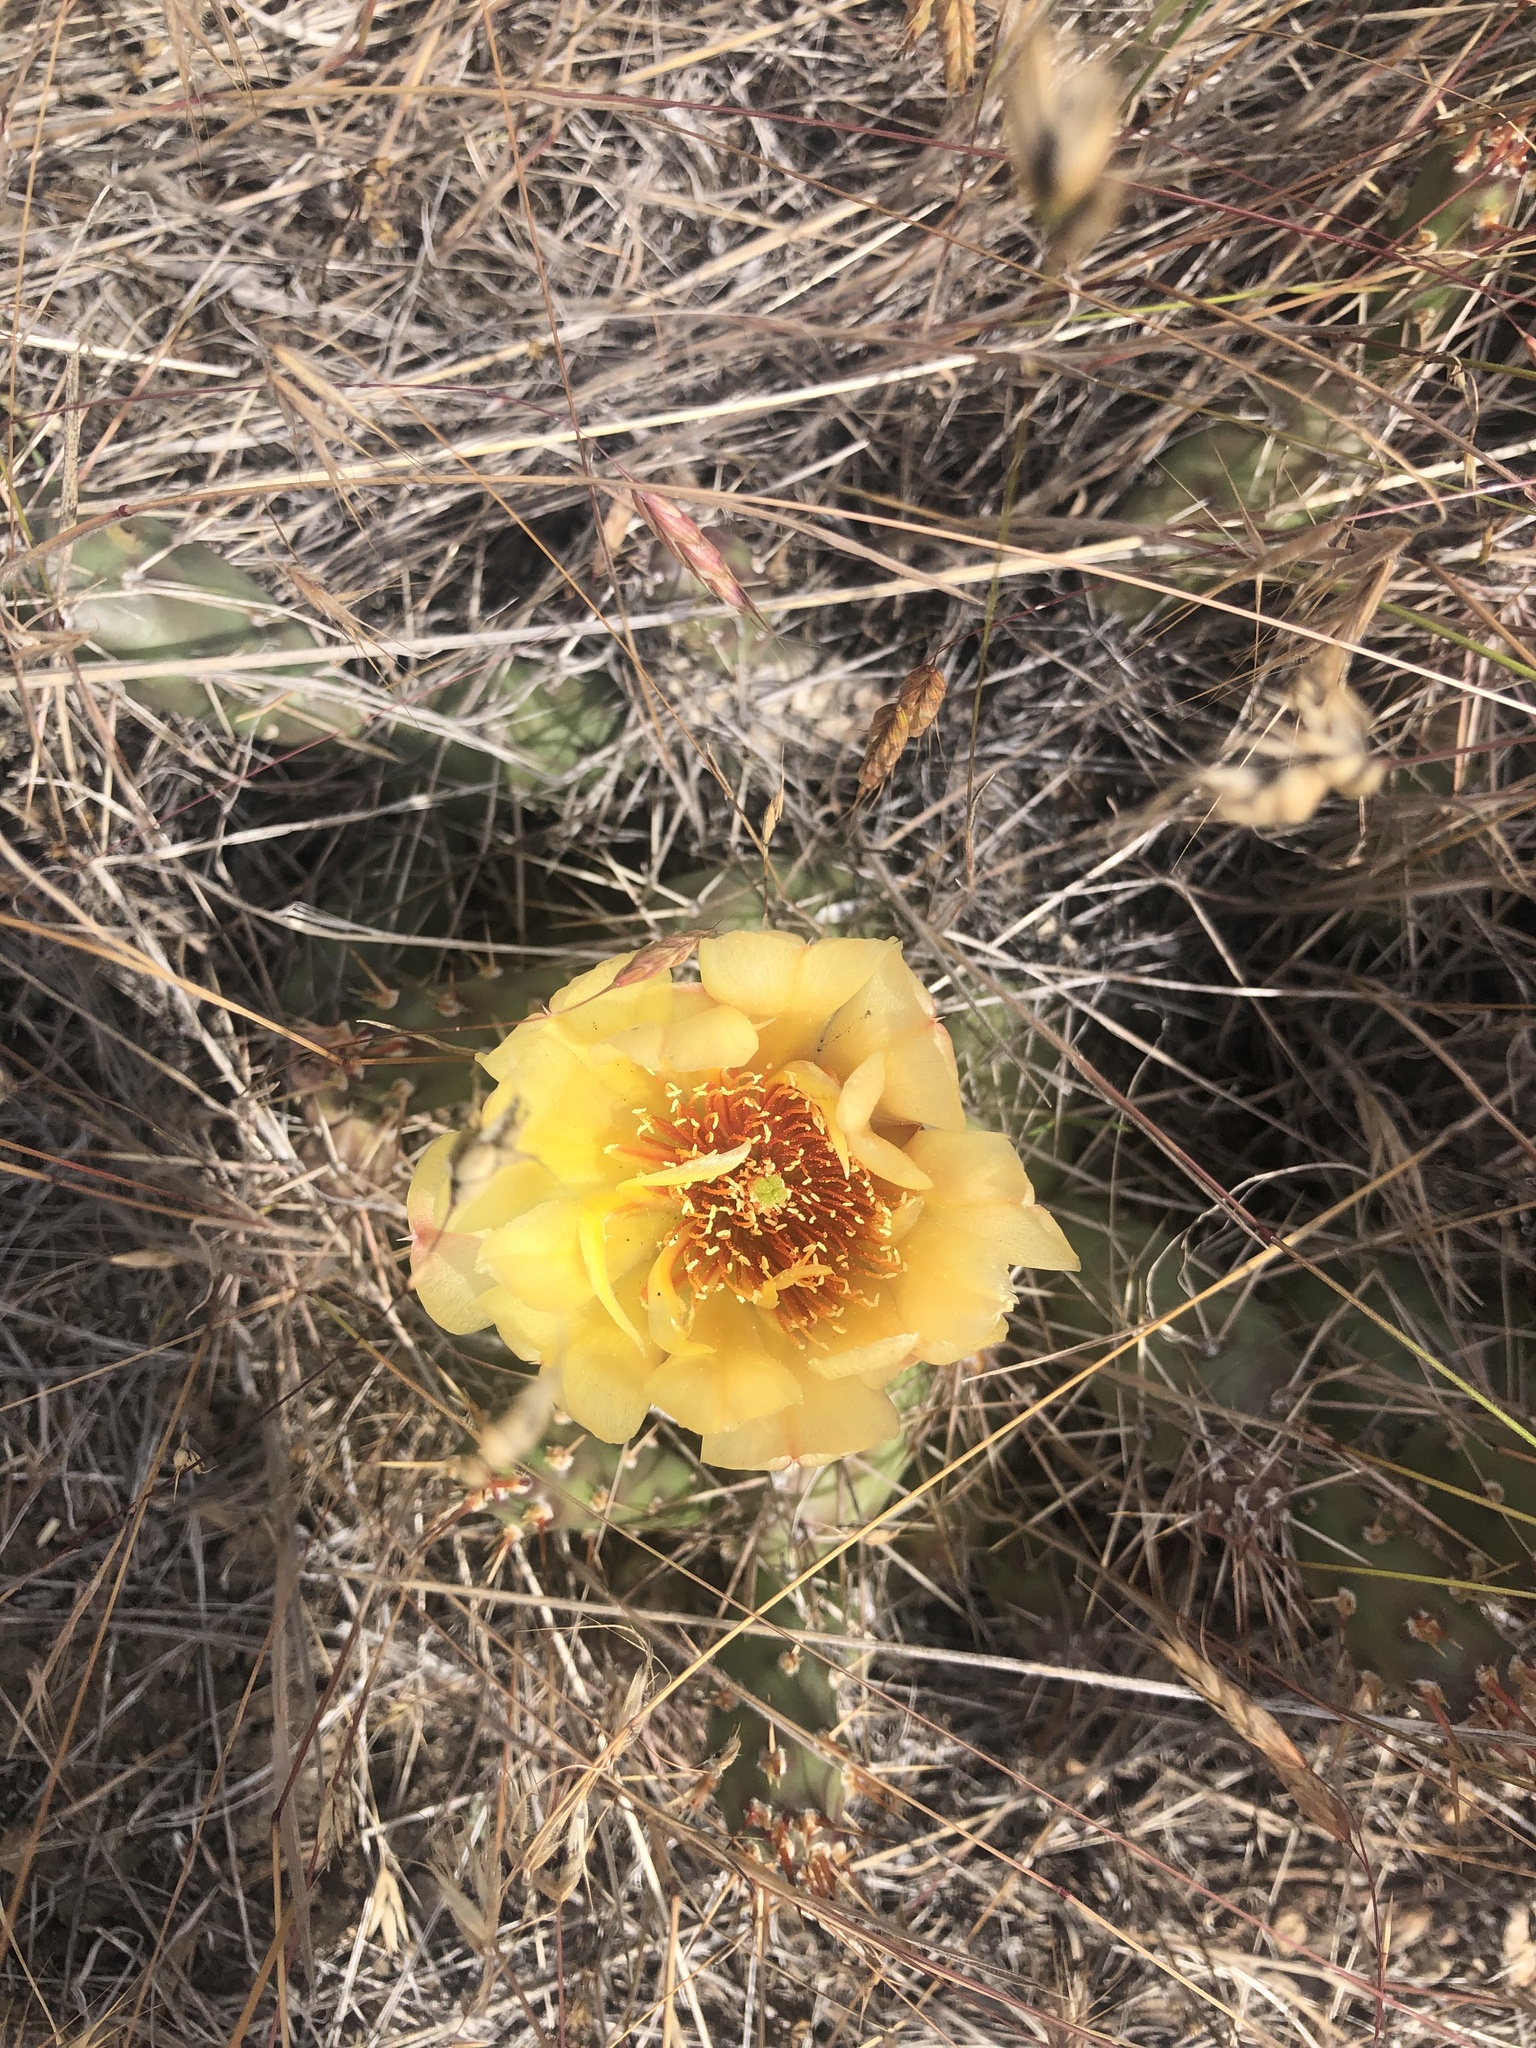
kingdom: Plantae
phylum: Tracheophyta
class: Magnoliopsida
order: Caryophyllales
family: Cactaceae
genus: Opuntia
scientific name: Opuntia fragilis
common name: Brittle cactus
